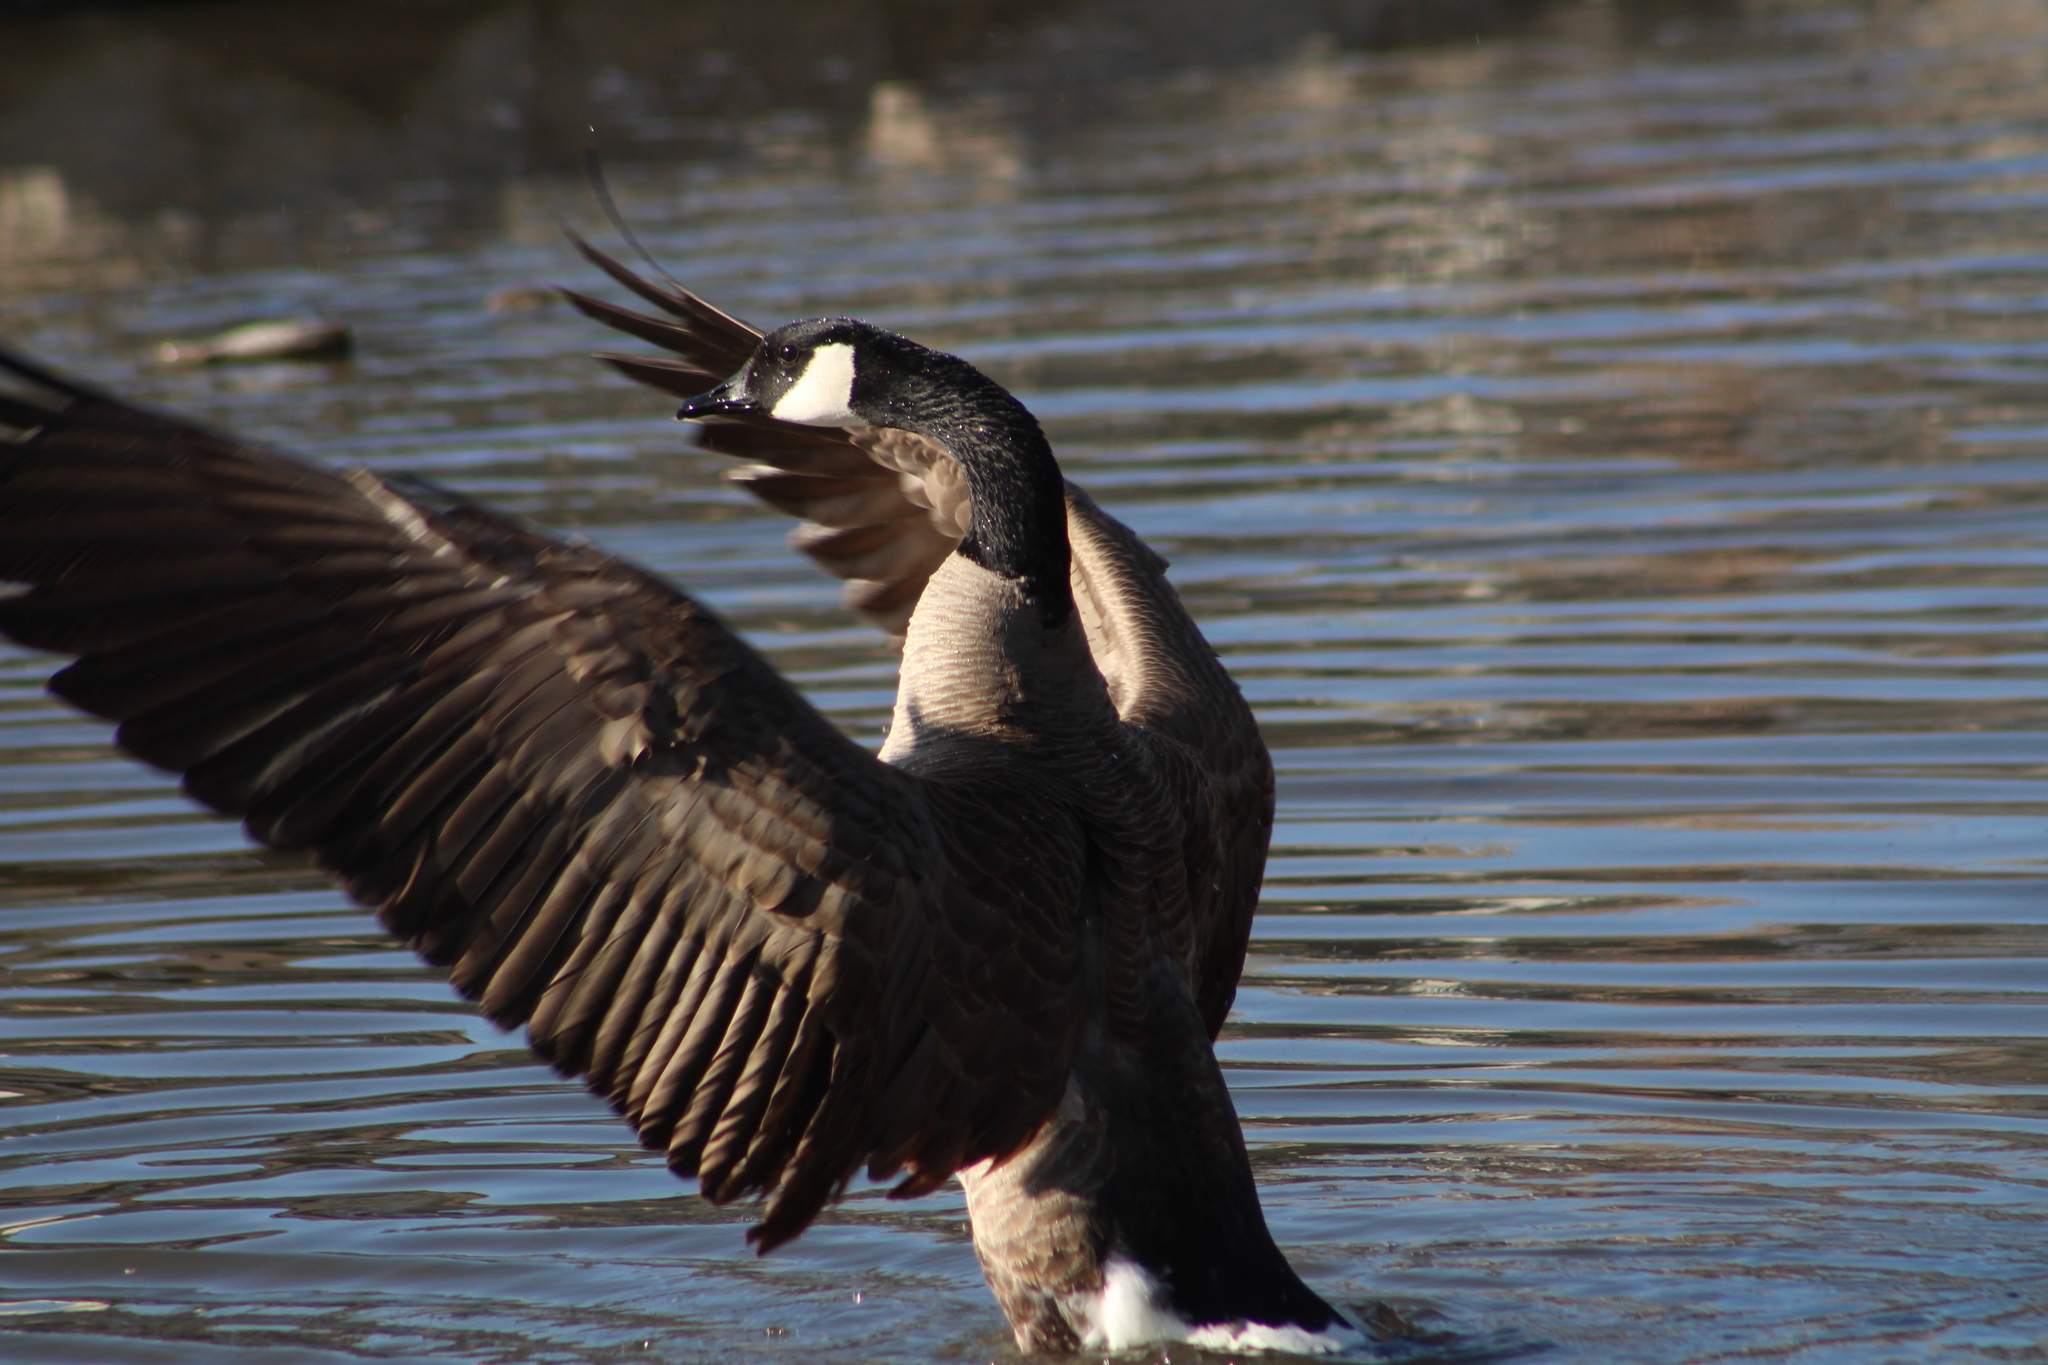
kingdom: Animalia
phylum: Chordata
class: Aves
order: Anseriformes
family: Anatidae
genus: Branta
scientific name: Branta canadensis
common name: Canada goose
